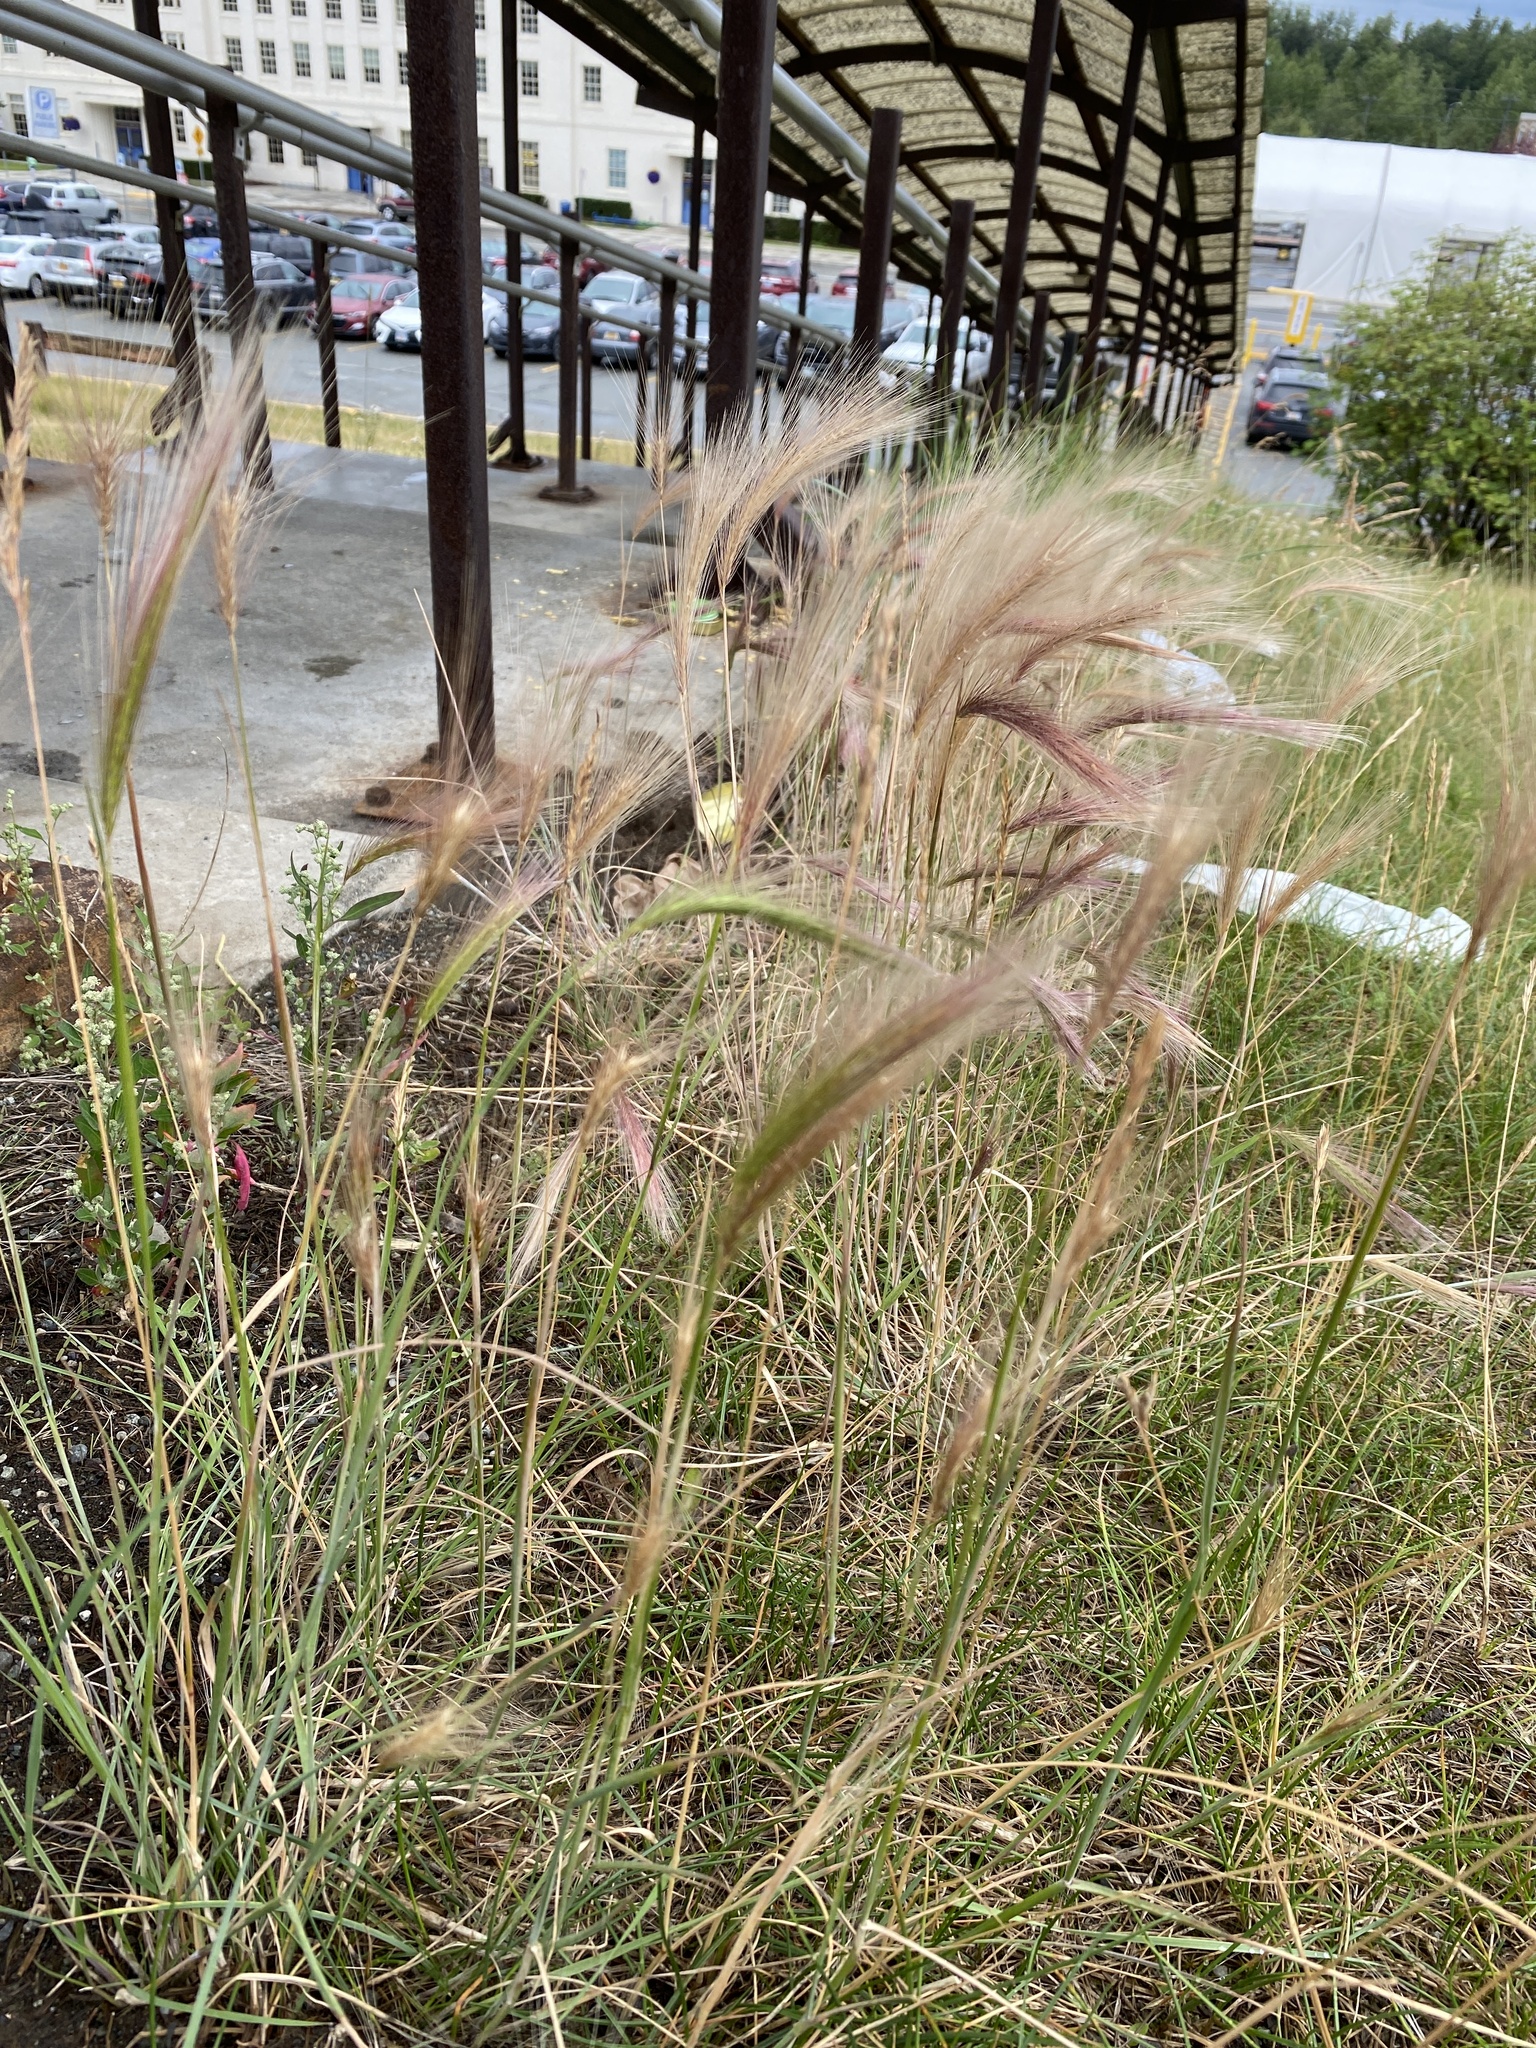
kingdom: Plantae
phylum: Tracheophyta
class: Liliopsida
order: Poales
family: Poaceae
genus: Hordeum
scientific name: Hordeum jubatum
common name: Foxtail barley
